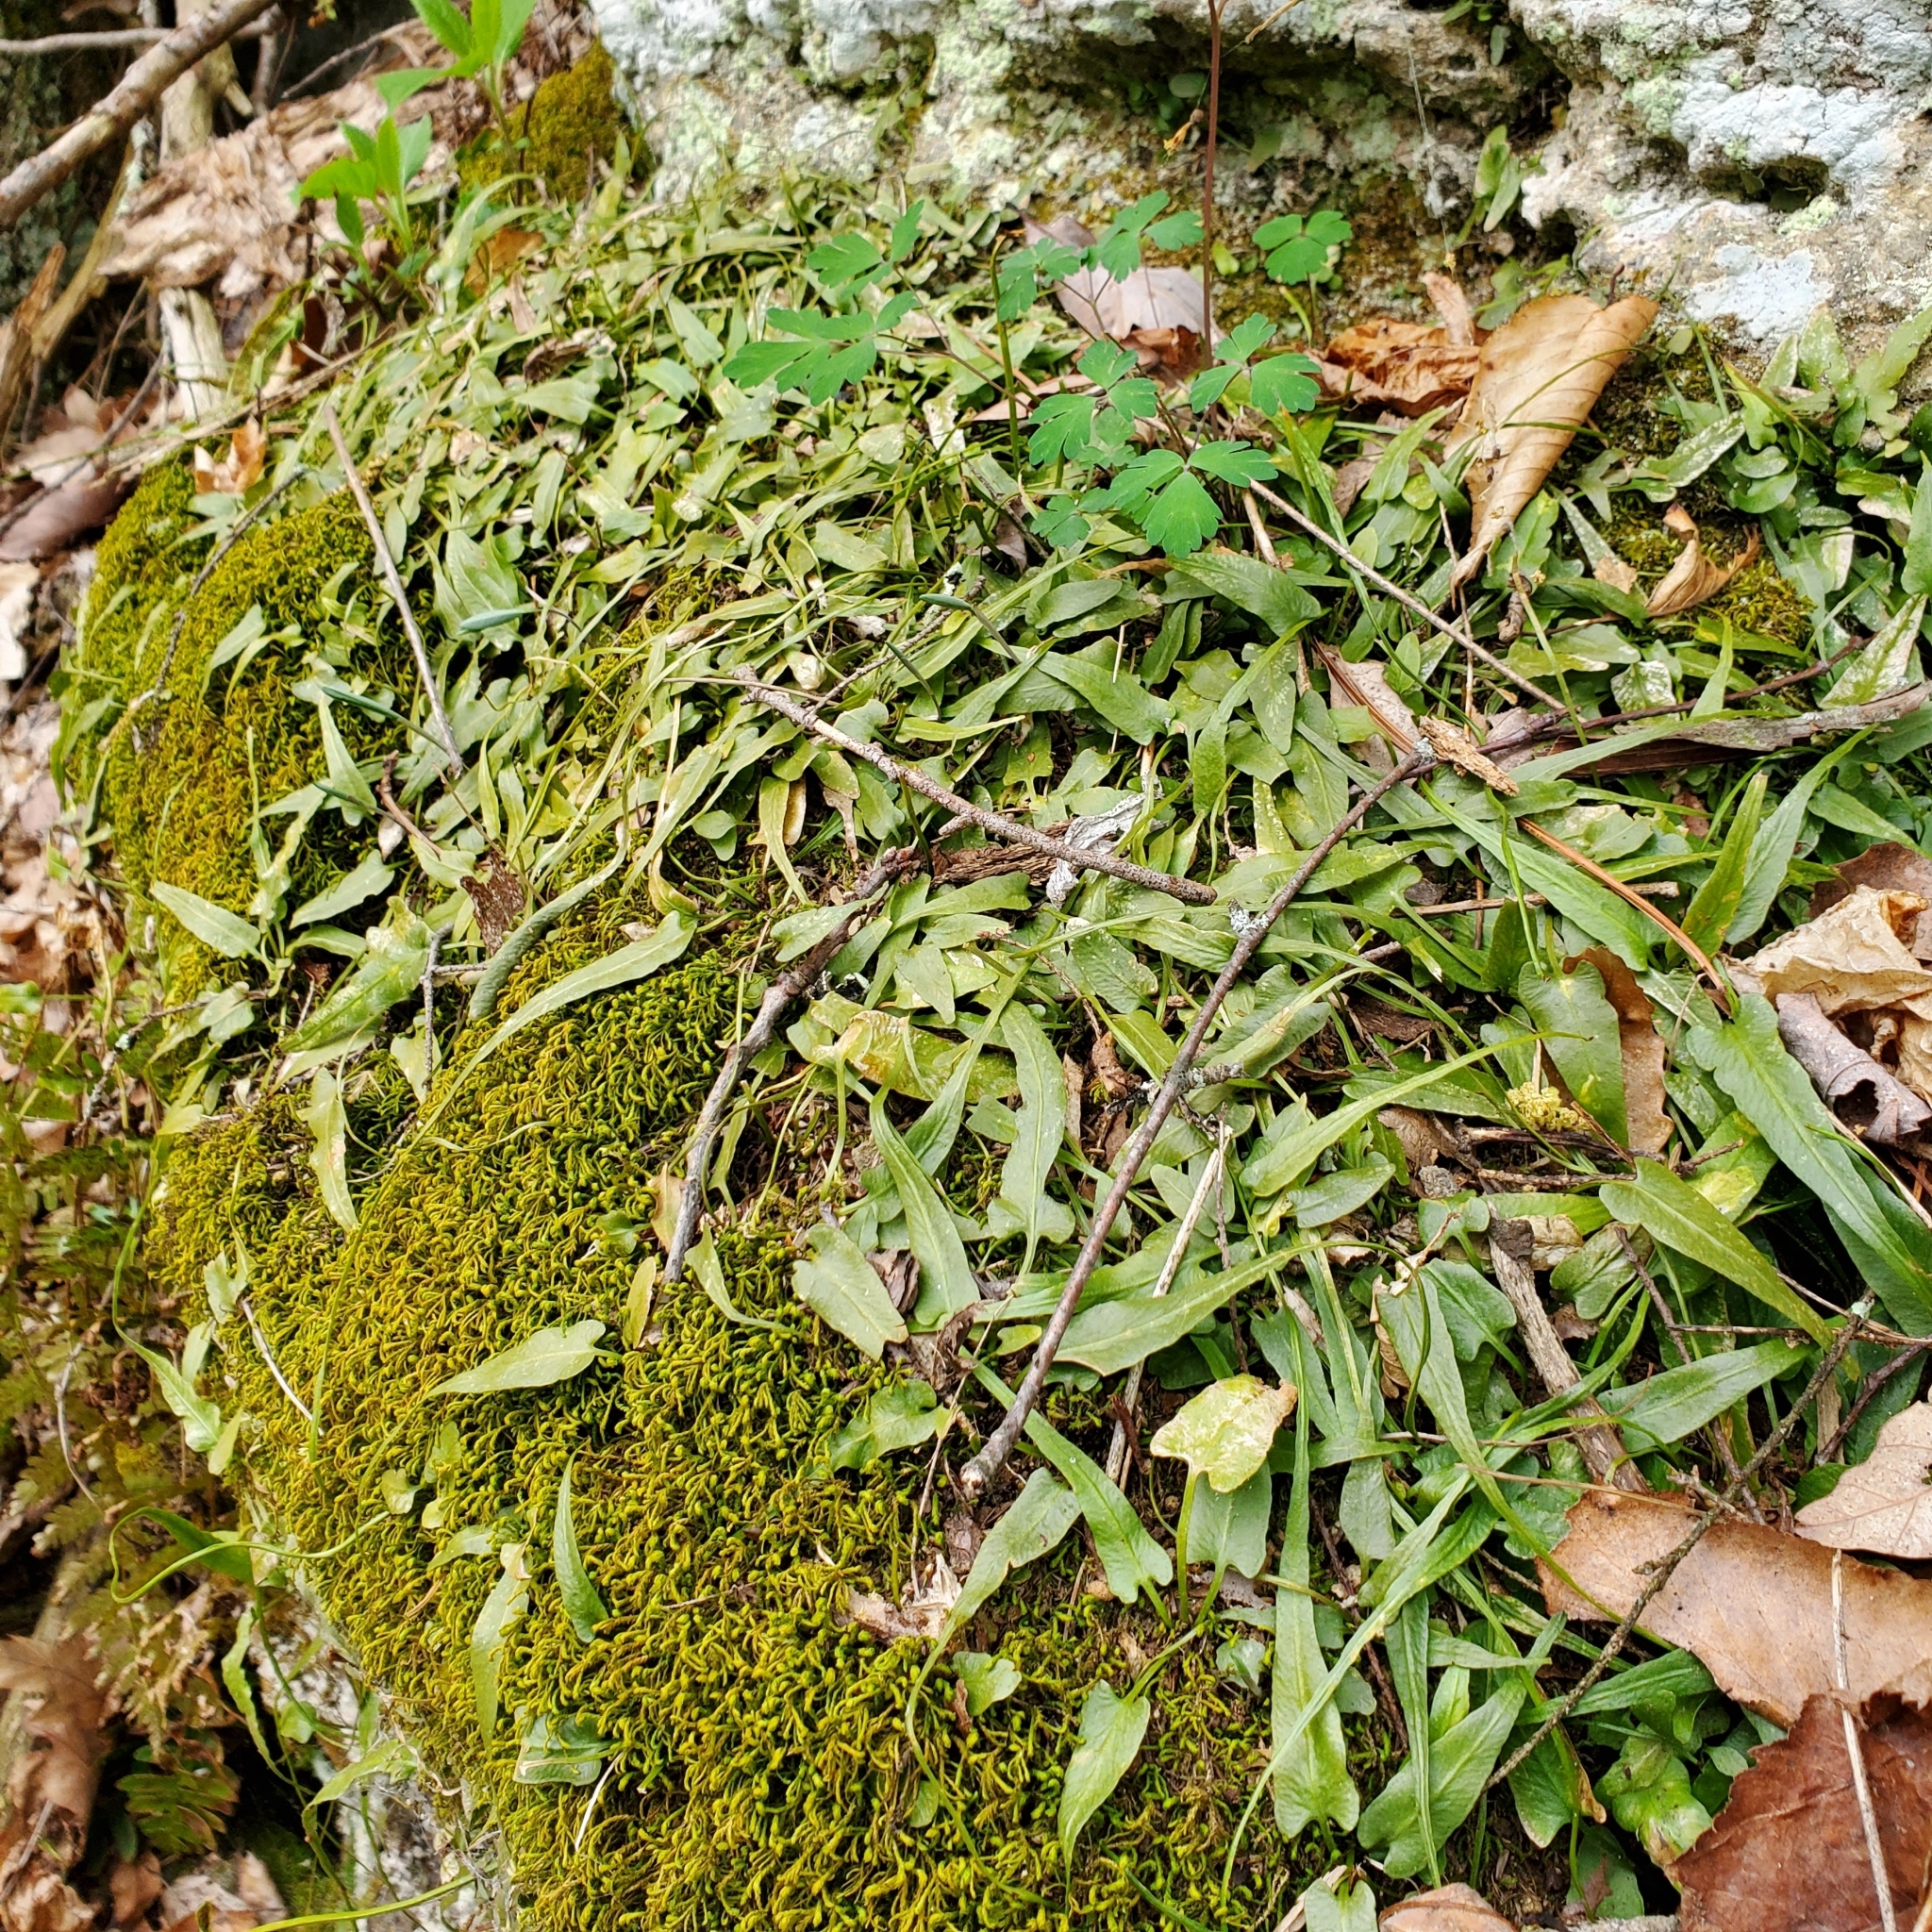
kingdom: Plantae
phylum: Tracheophyta
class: Polypodiopsida
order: Polypodiales
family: Aspleniaceae
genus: Asplenium
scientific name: Asplenium rhizophyllum
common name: Walking fern
